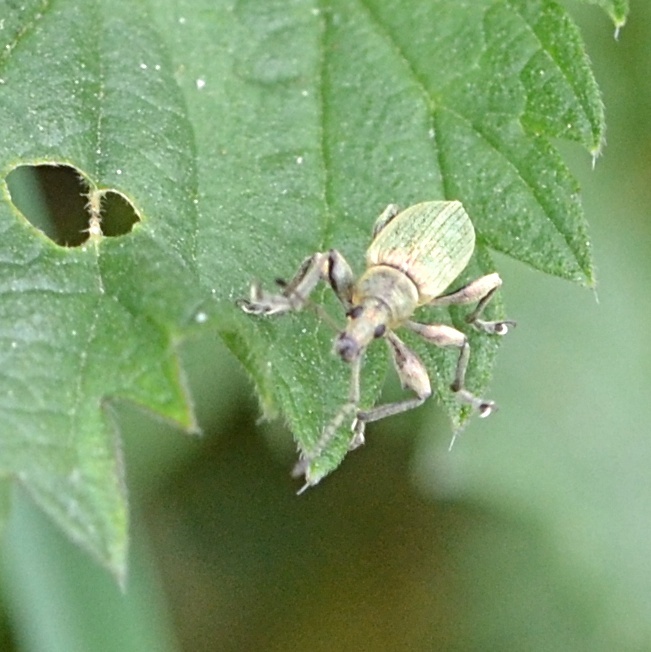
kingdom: Animalia
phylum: Arthropoda
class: Insecta
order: Coleoptera
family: Curculionidae
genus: Phyllobius
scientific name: Phyllobius pomaceus
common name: Green nettle weevil
